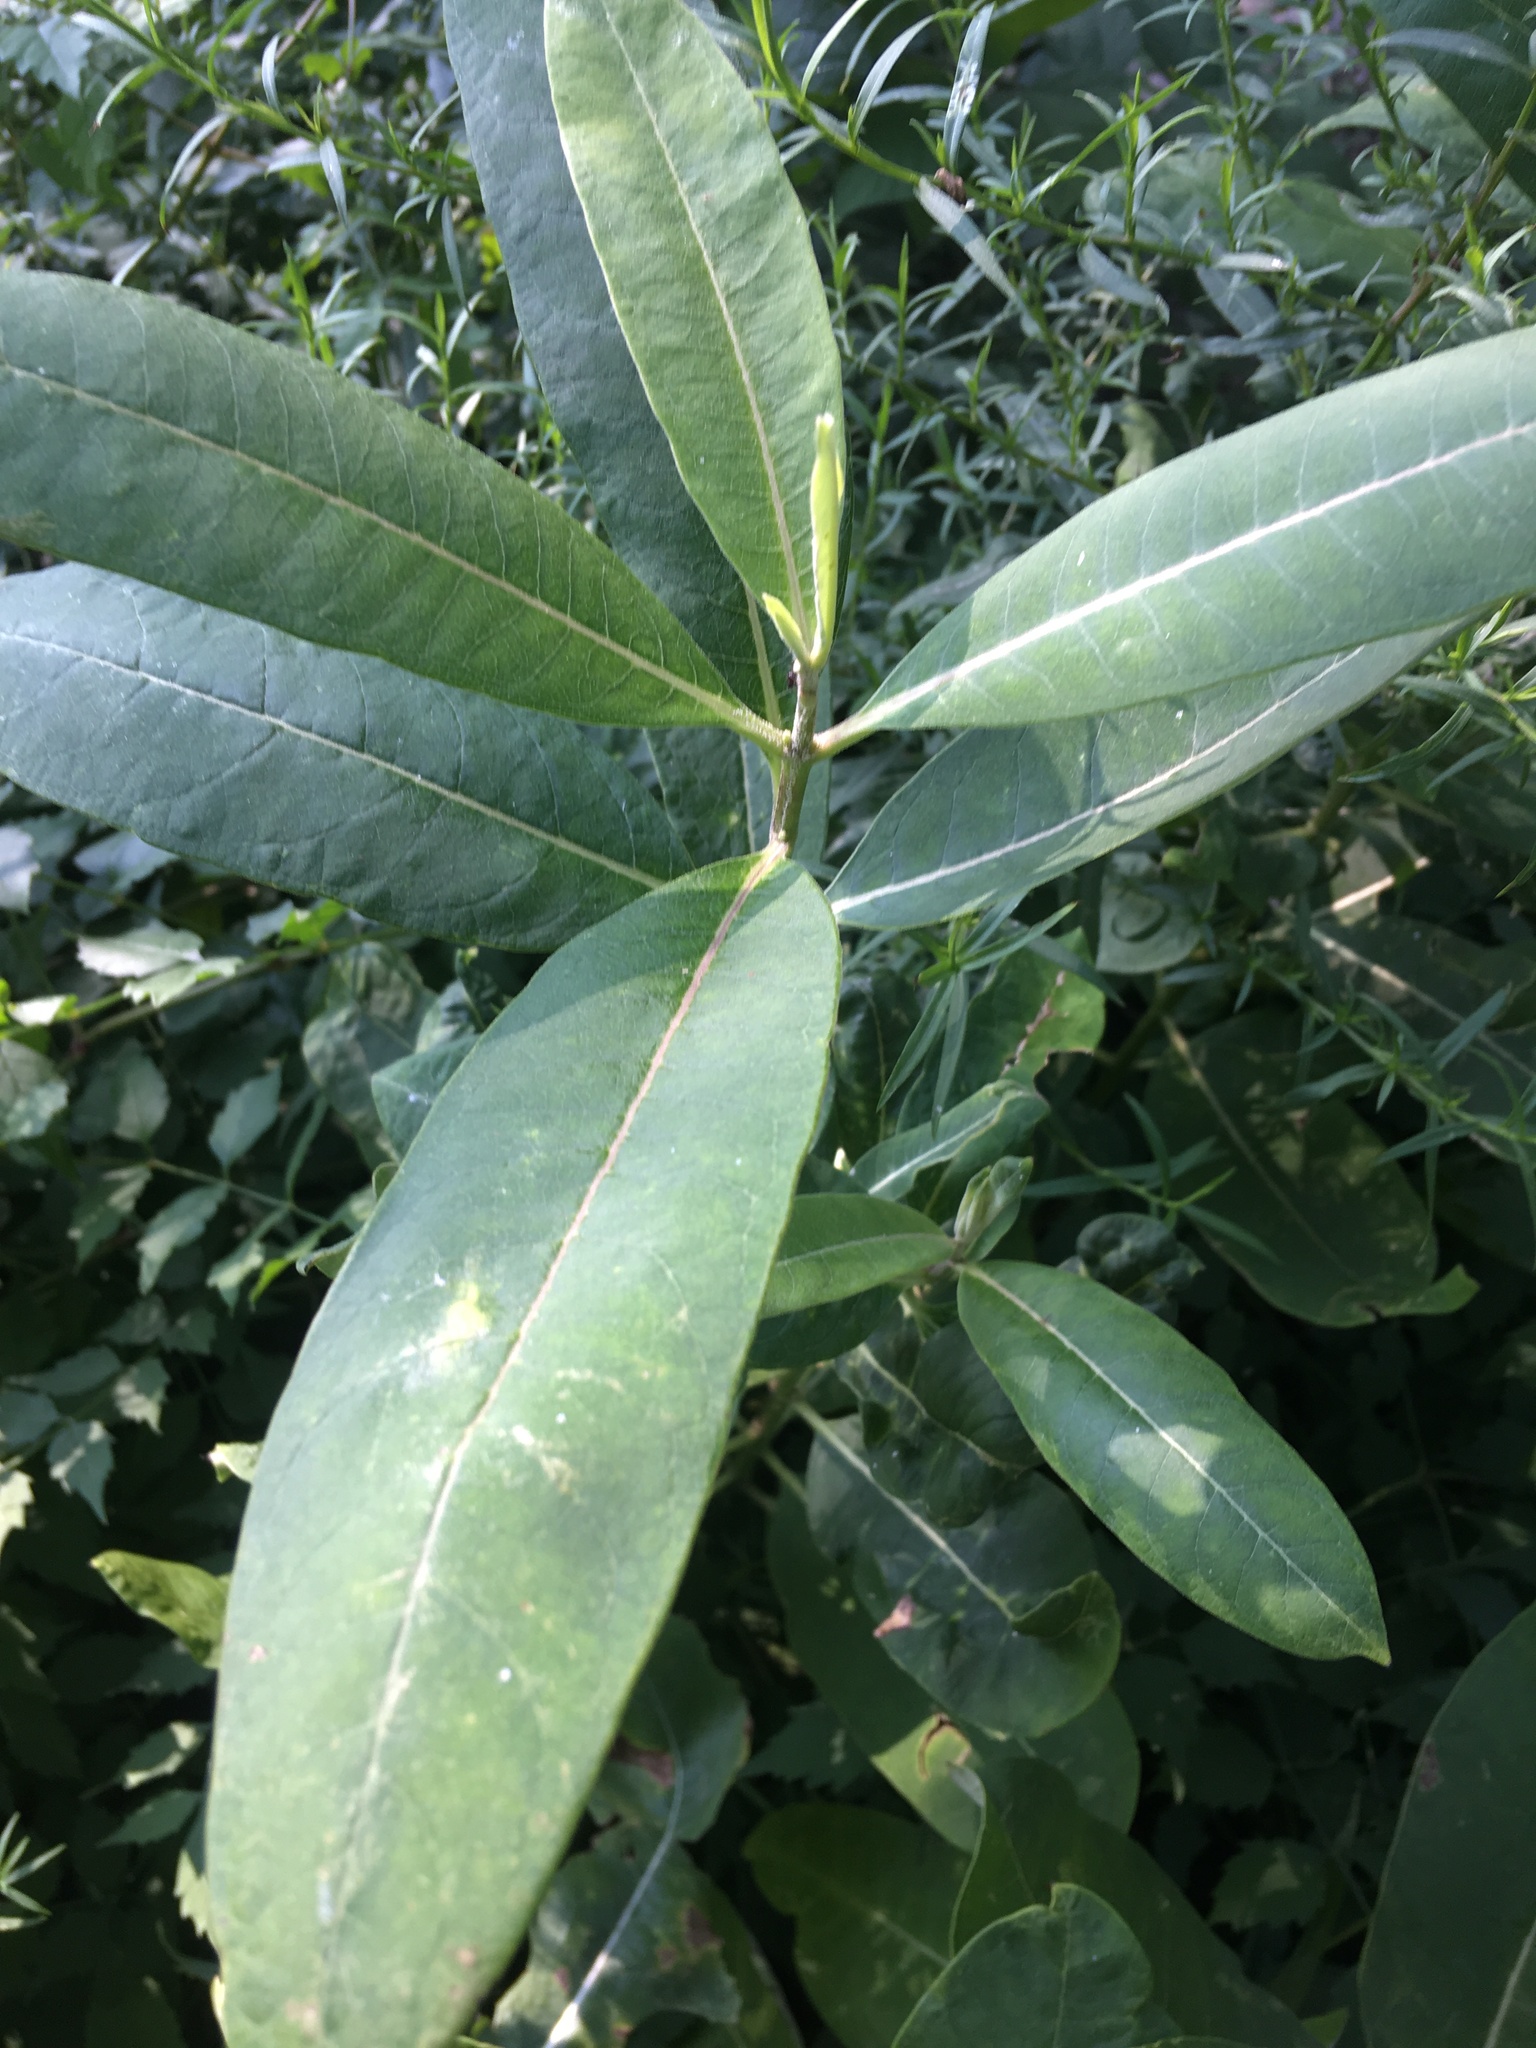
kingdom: Plantae
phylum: Tracheophyta
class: Magnoliopsida
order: Gentianales
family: Apocynaceae
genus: Asclepias
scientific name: Asclepias syriaca
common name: Common milkweed
